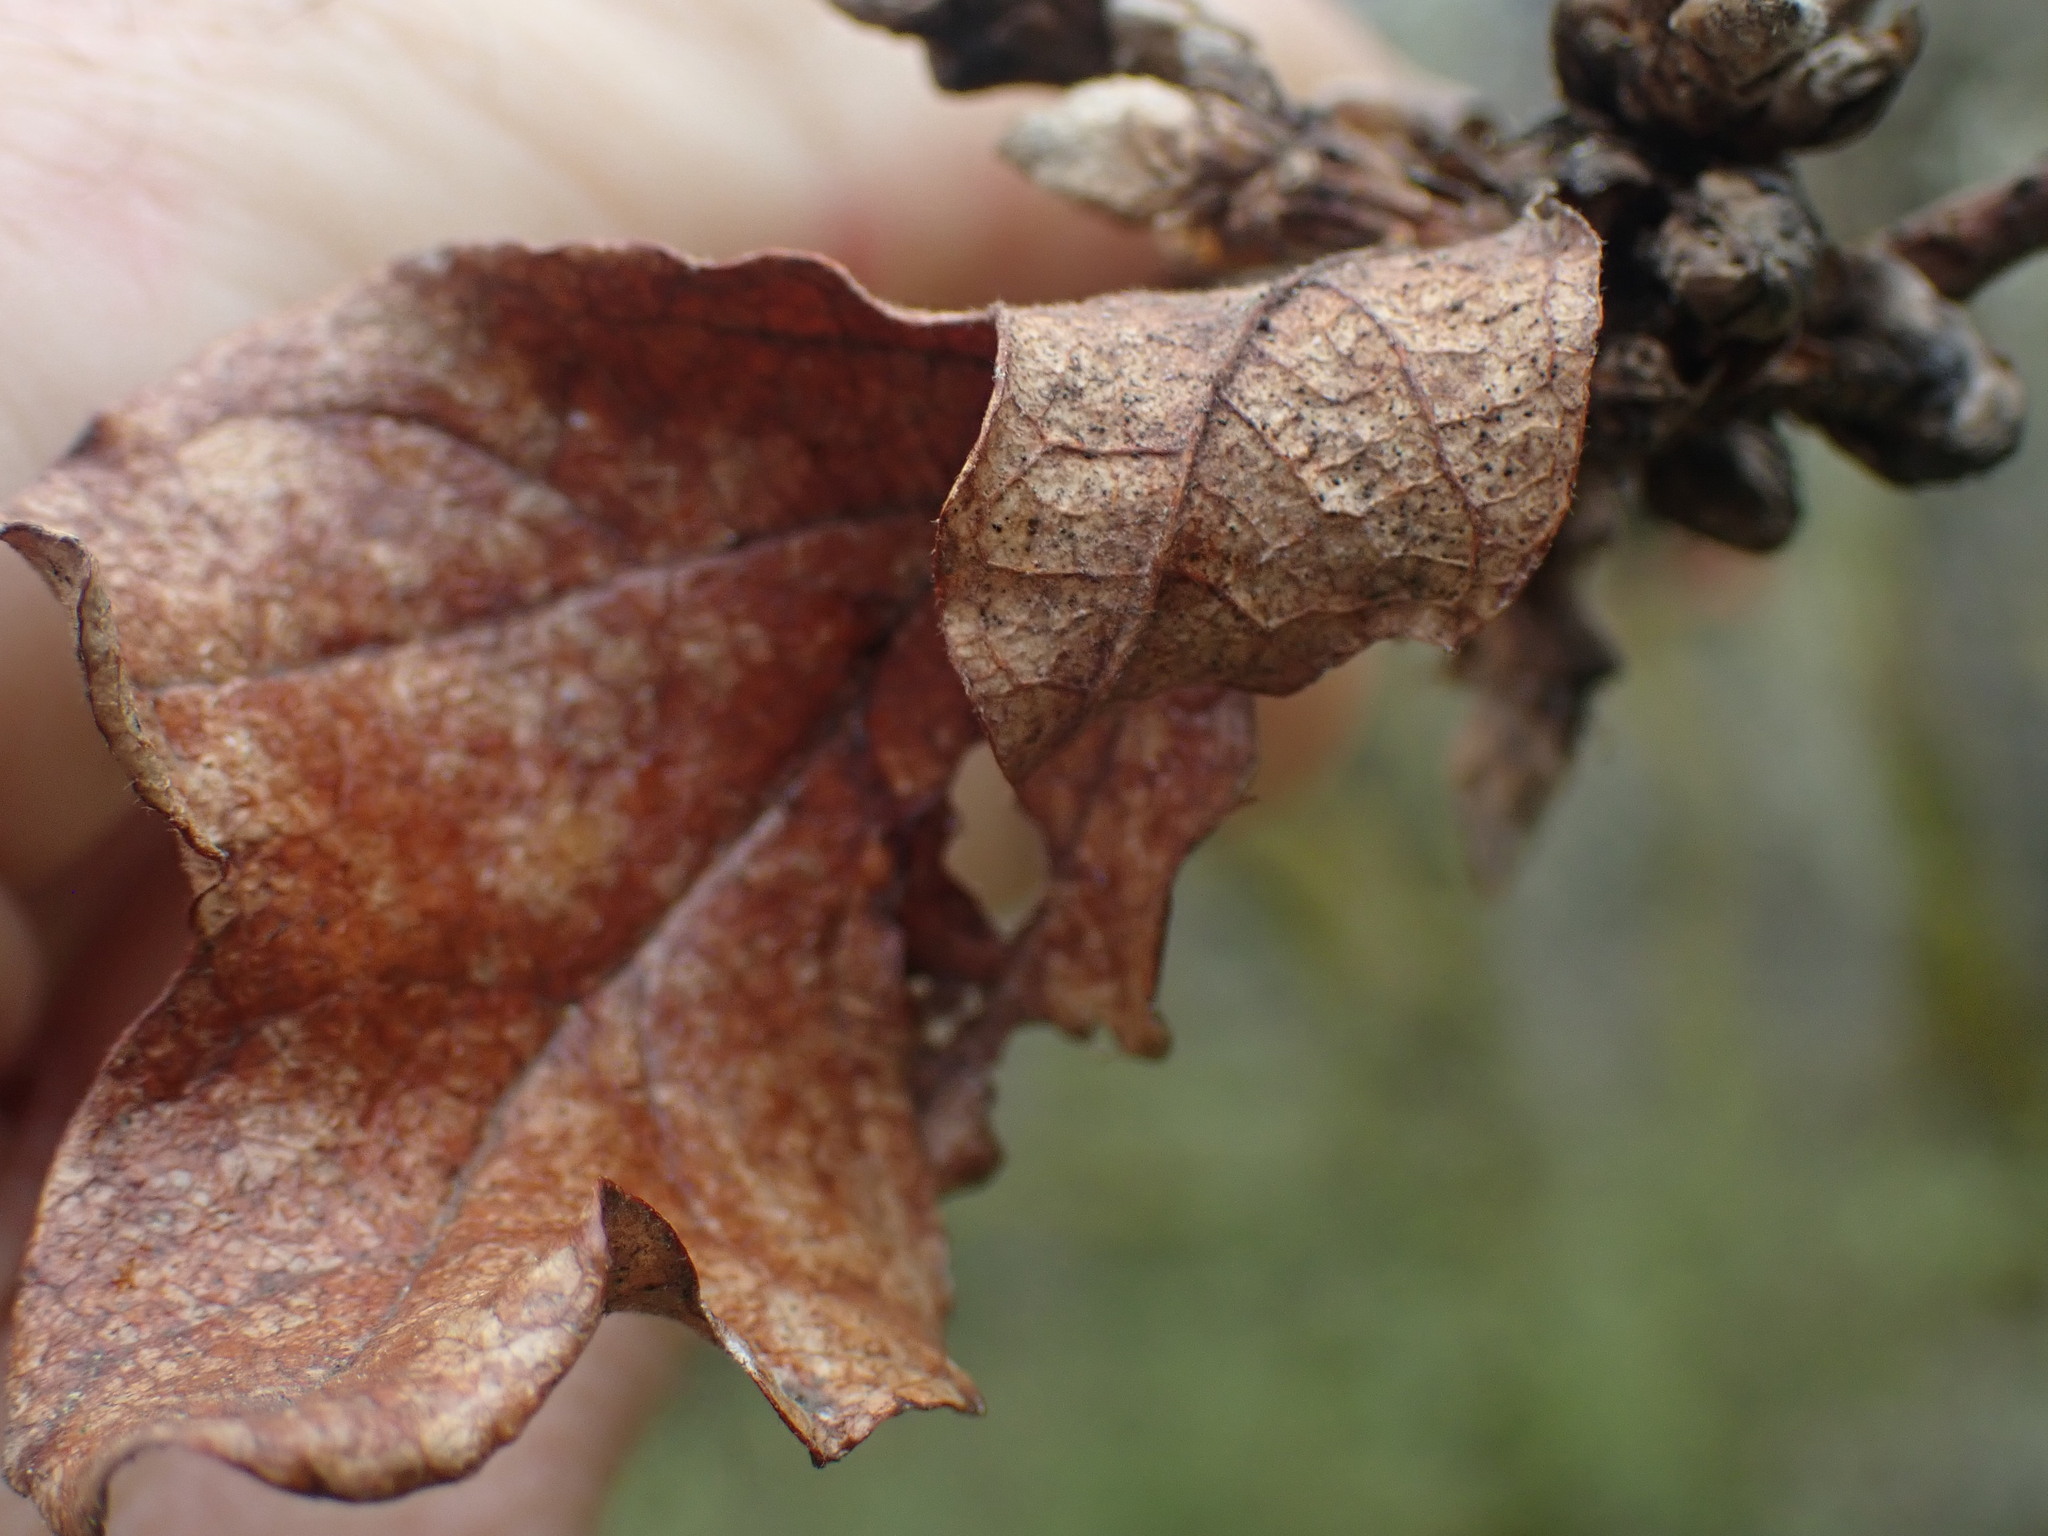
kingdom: Plantae
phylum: Tracheophyta
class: Magnoliopsida
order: Fagales
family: Fagaceae
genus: Quercus
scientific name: Quercus garryana
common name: Garry oak
